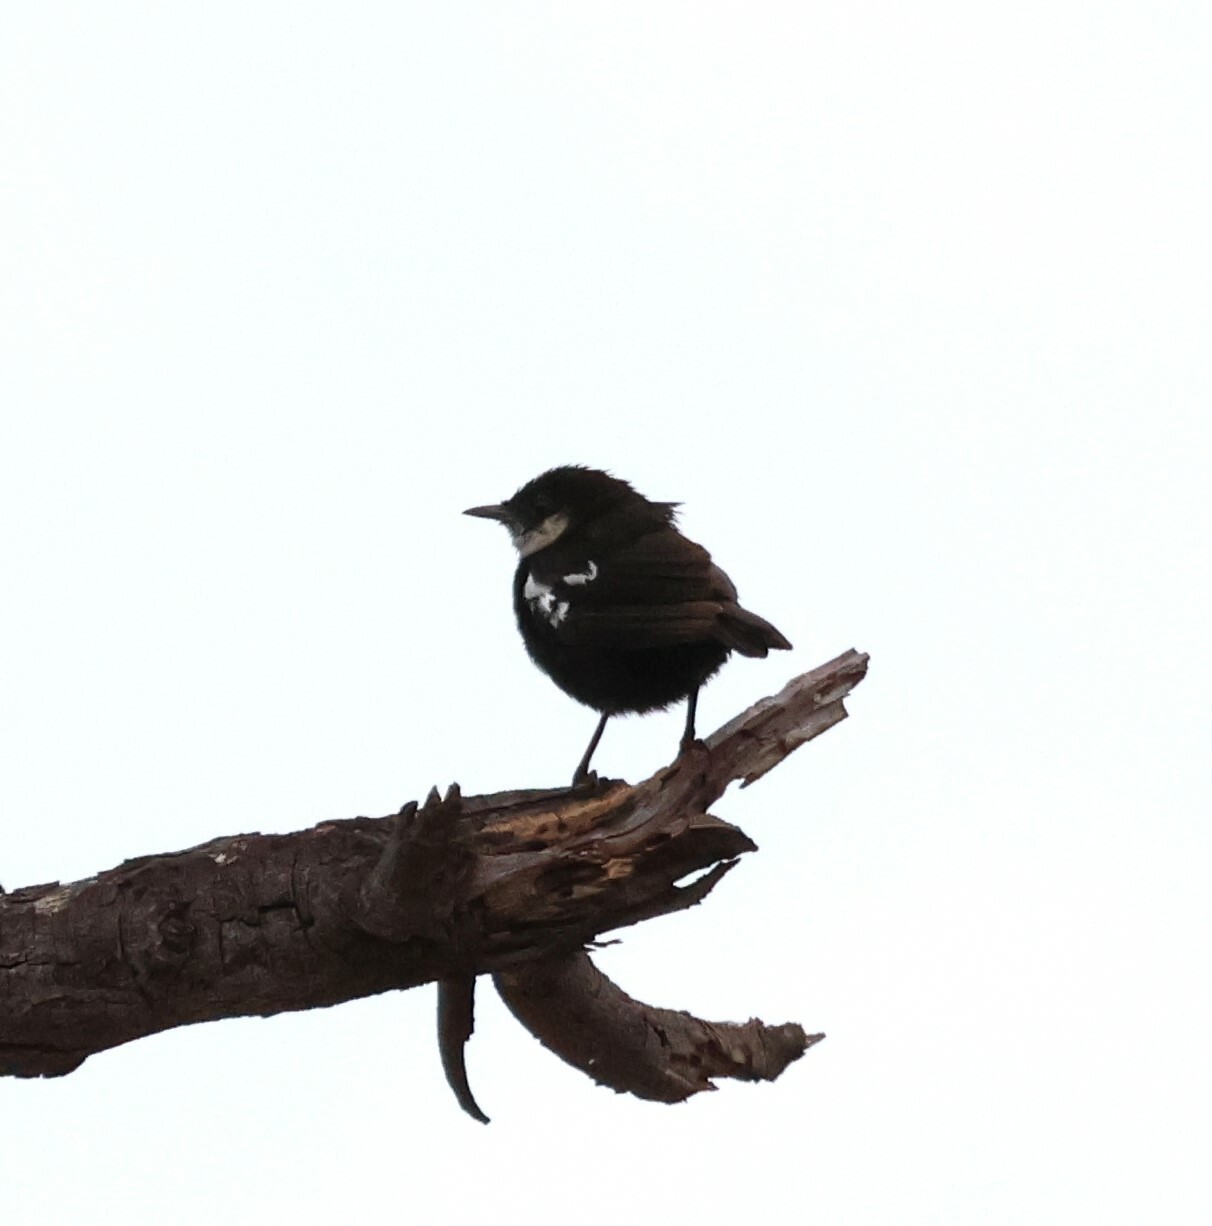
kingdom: Animalia
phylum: Chordata
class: Aves
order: Passeriformes
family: Muscicapidae
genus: Pentholaea
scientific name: Pentholaea arnotti
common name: Arnot's chat
